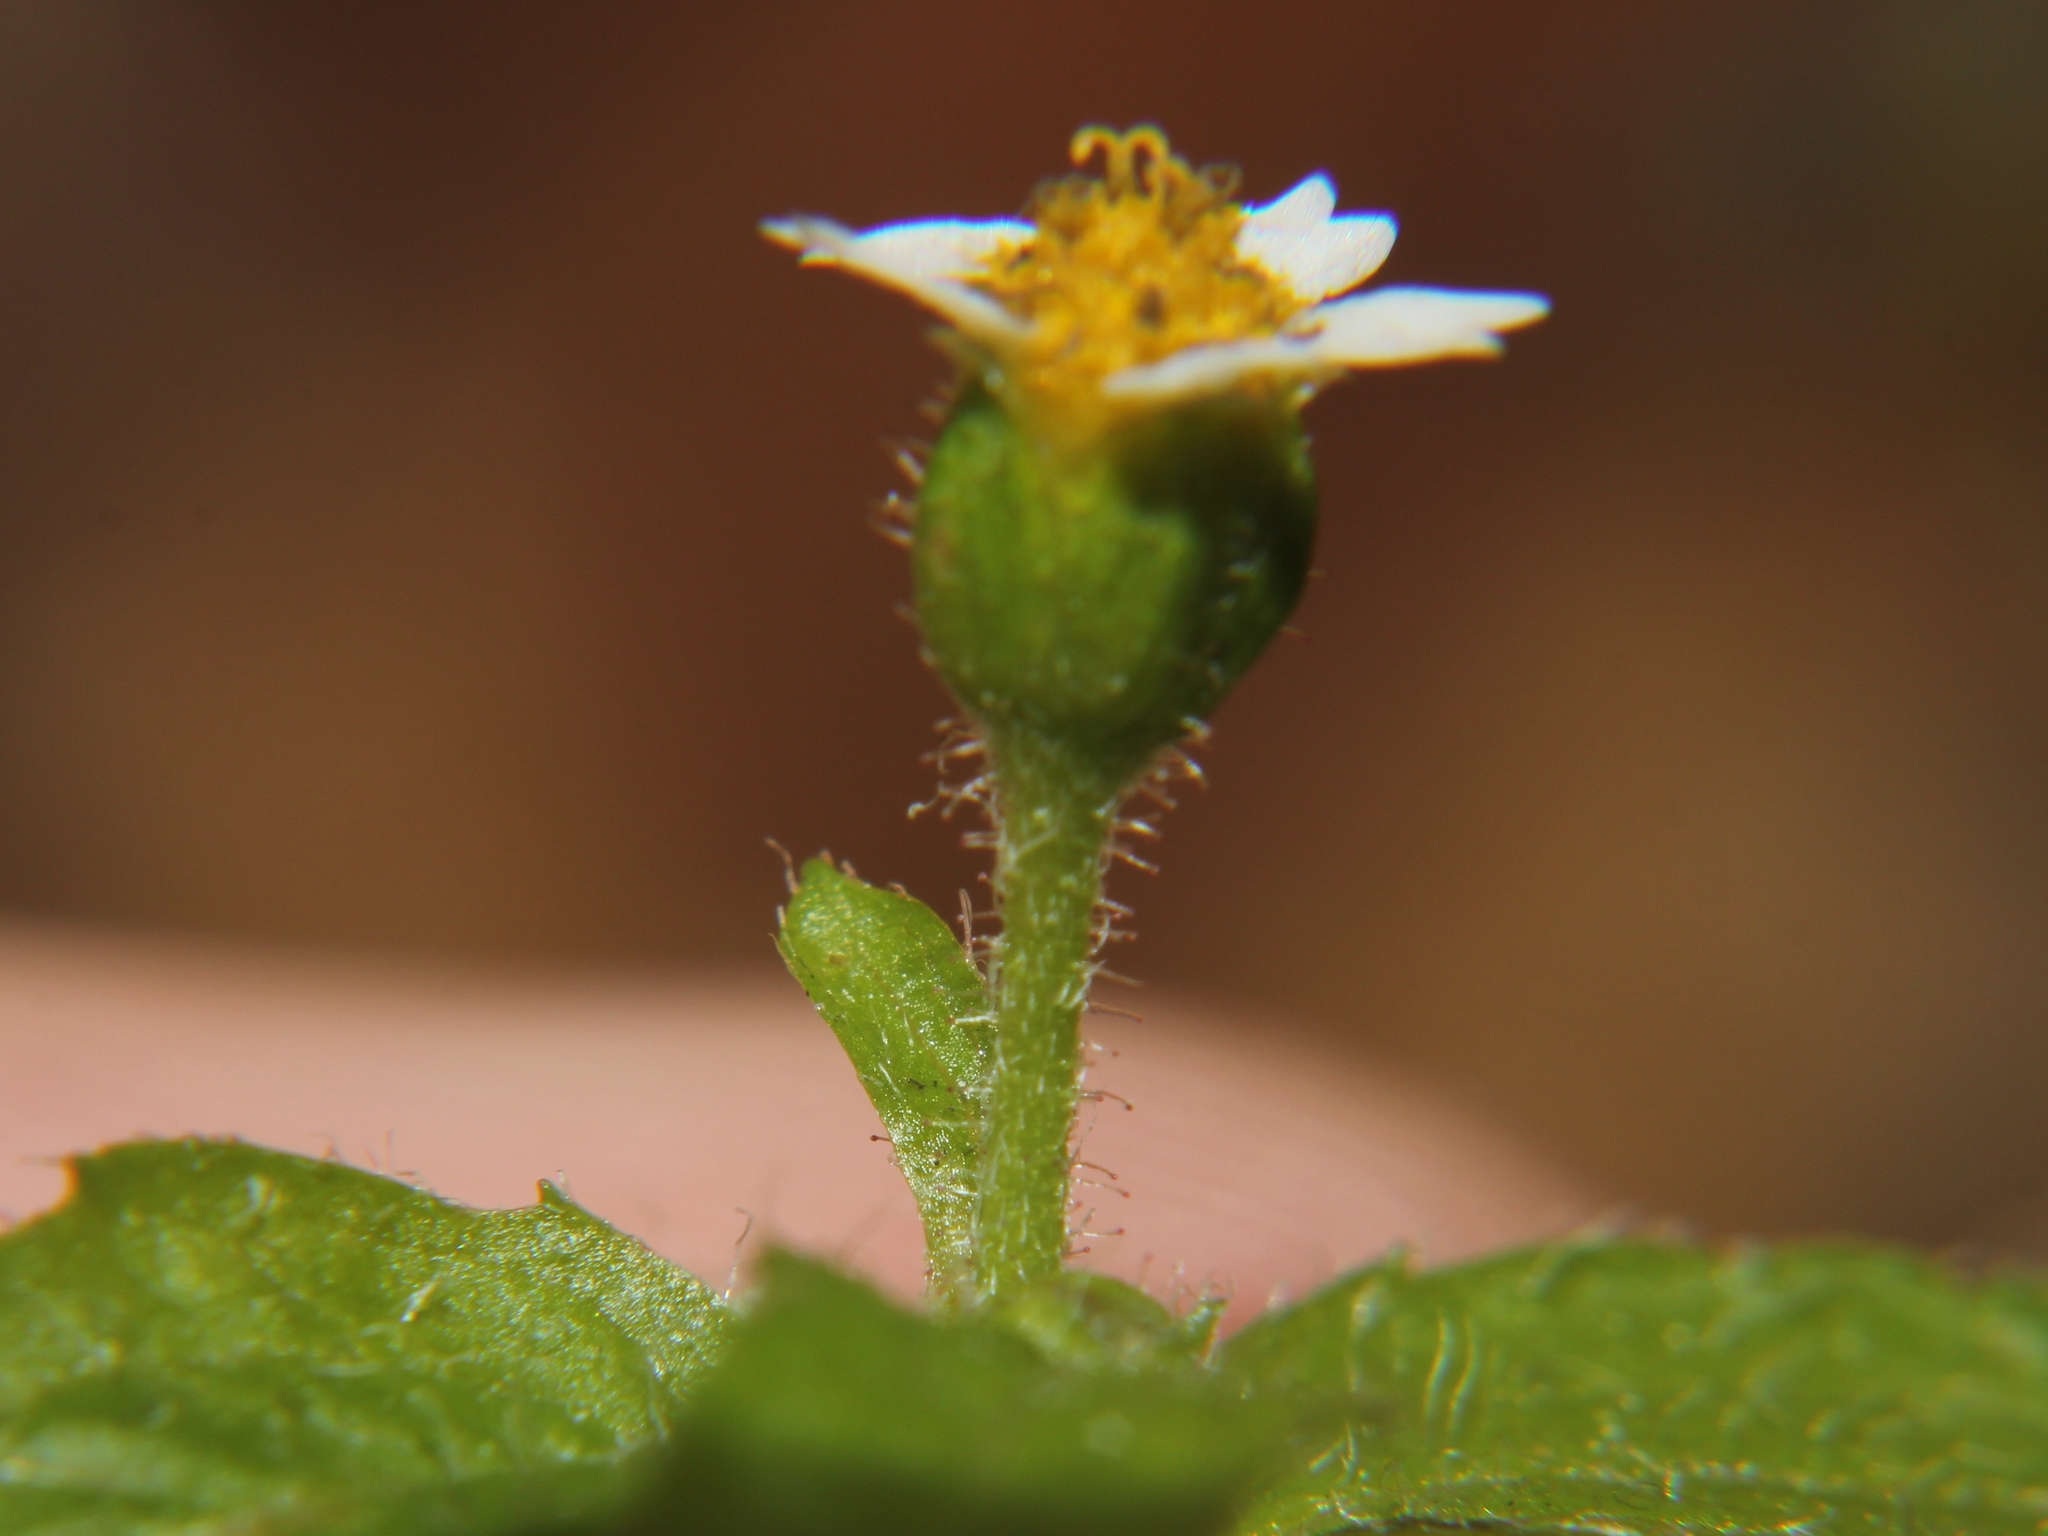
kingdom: Plantae
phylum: Tracheophyta
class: Magnoliopsida
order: Asterales
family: Asteraceae
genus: Galinsoga
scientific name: Galinsoga quadriradiata
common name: Shaggy soldier
